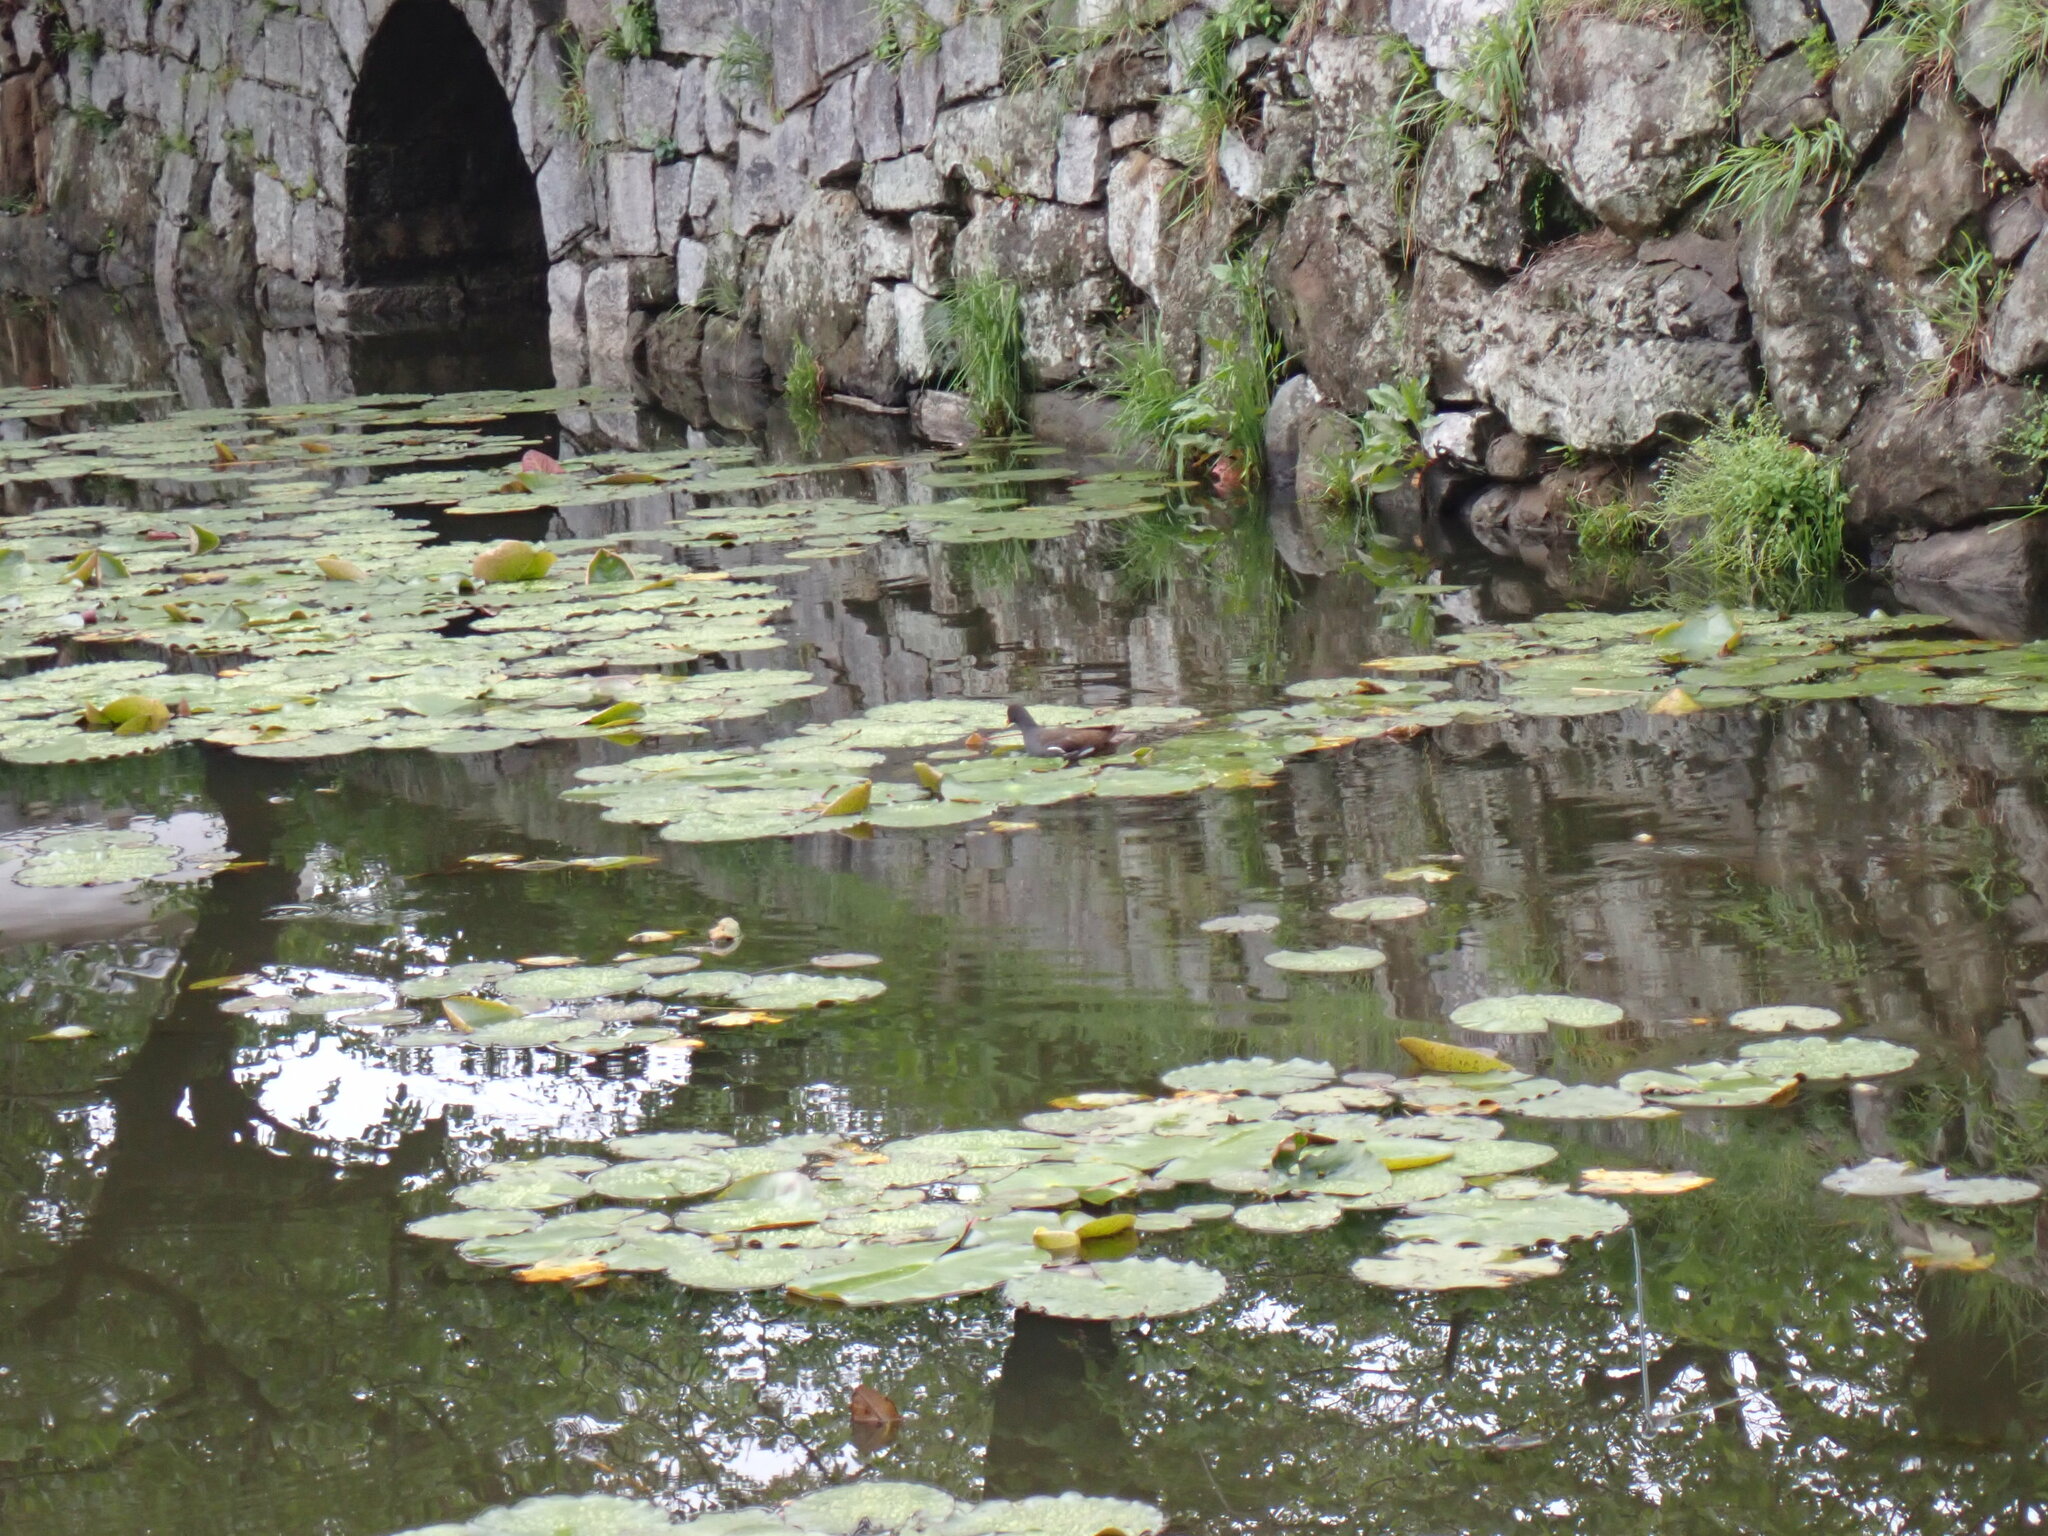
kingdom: Animalia
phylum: Chordata
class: Aves
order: Gruiformes
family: Rallidae
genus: Gallinula
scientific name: Gallinula chloropus
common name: Common moorhen
